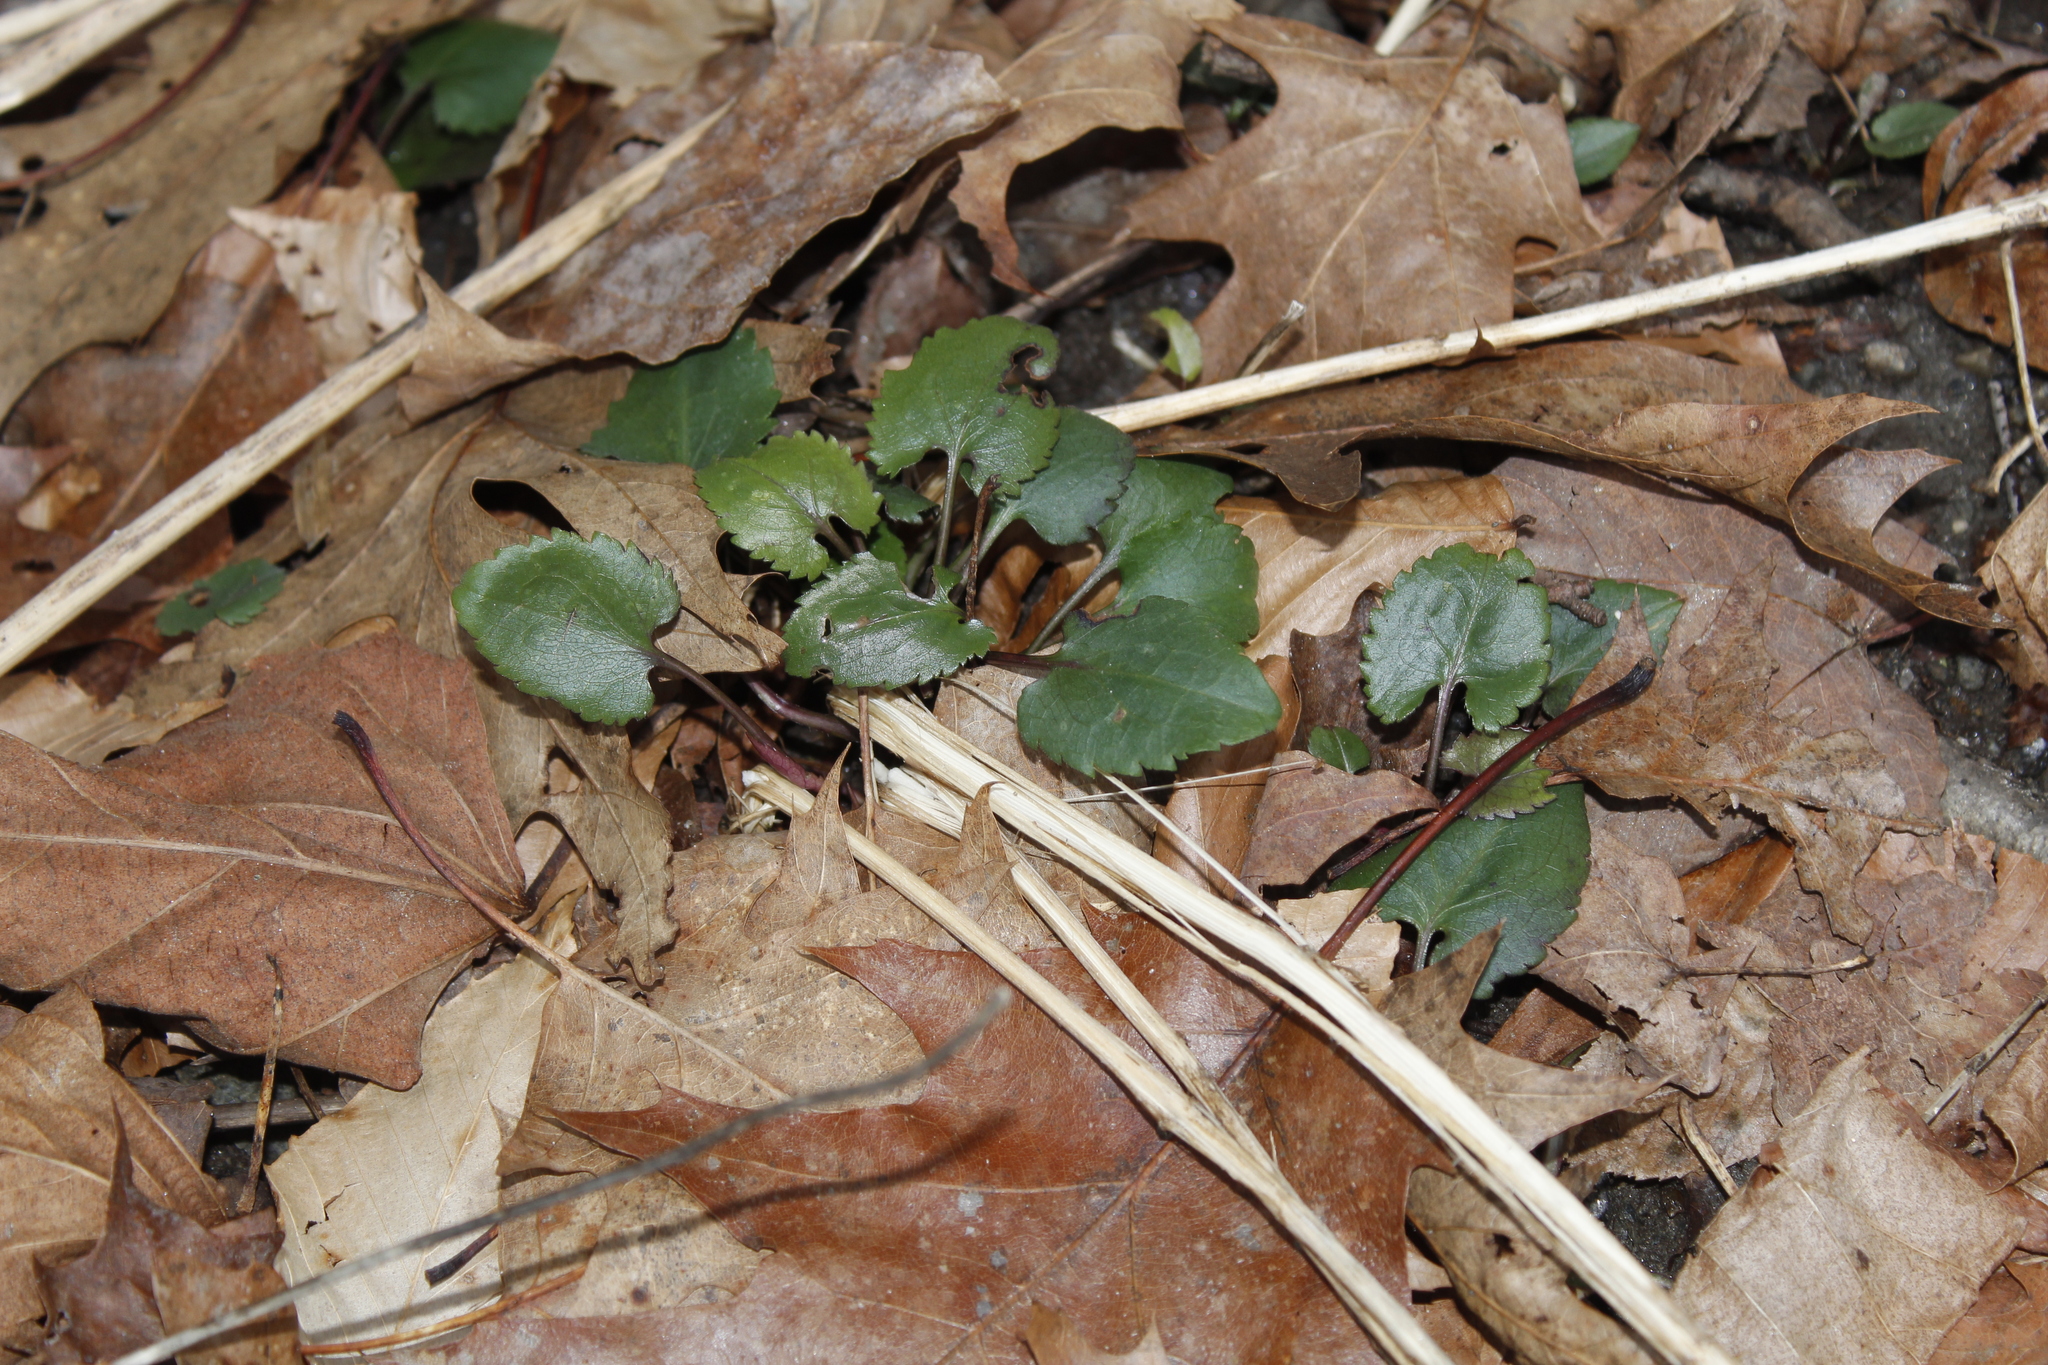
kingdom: Plantae
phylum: Tracheophyta
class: Magnoliopsida
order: Asterales
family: Asteraceae
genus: Symphyotrichum
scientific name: Symphyotrichum cordifolium
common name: Beeweed
